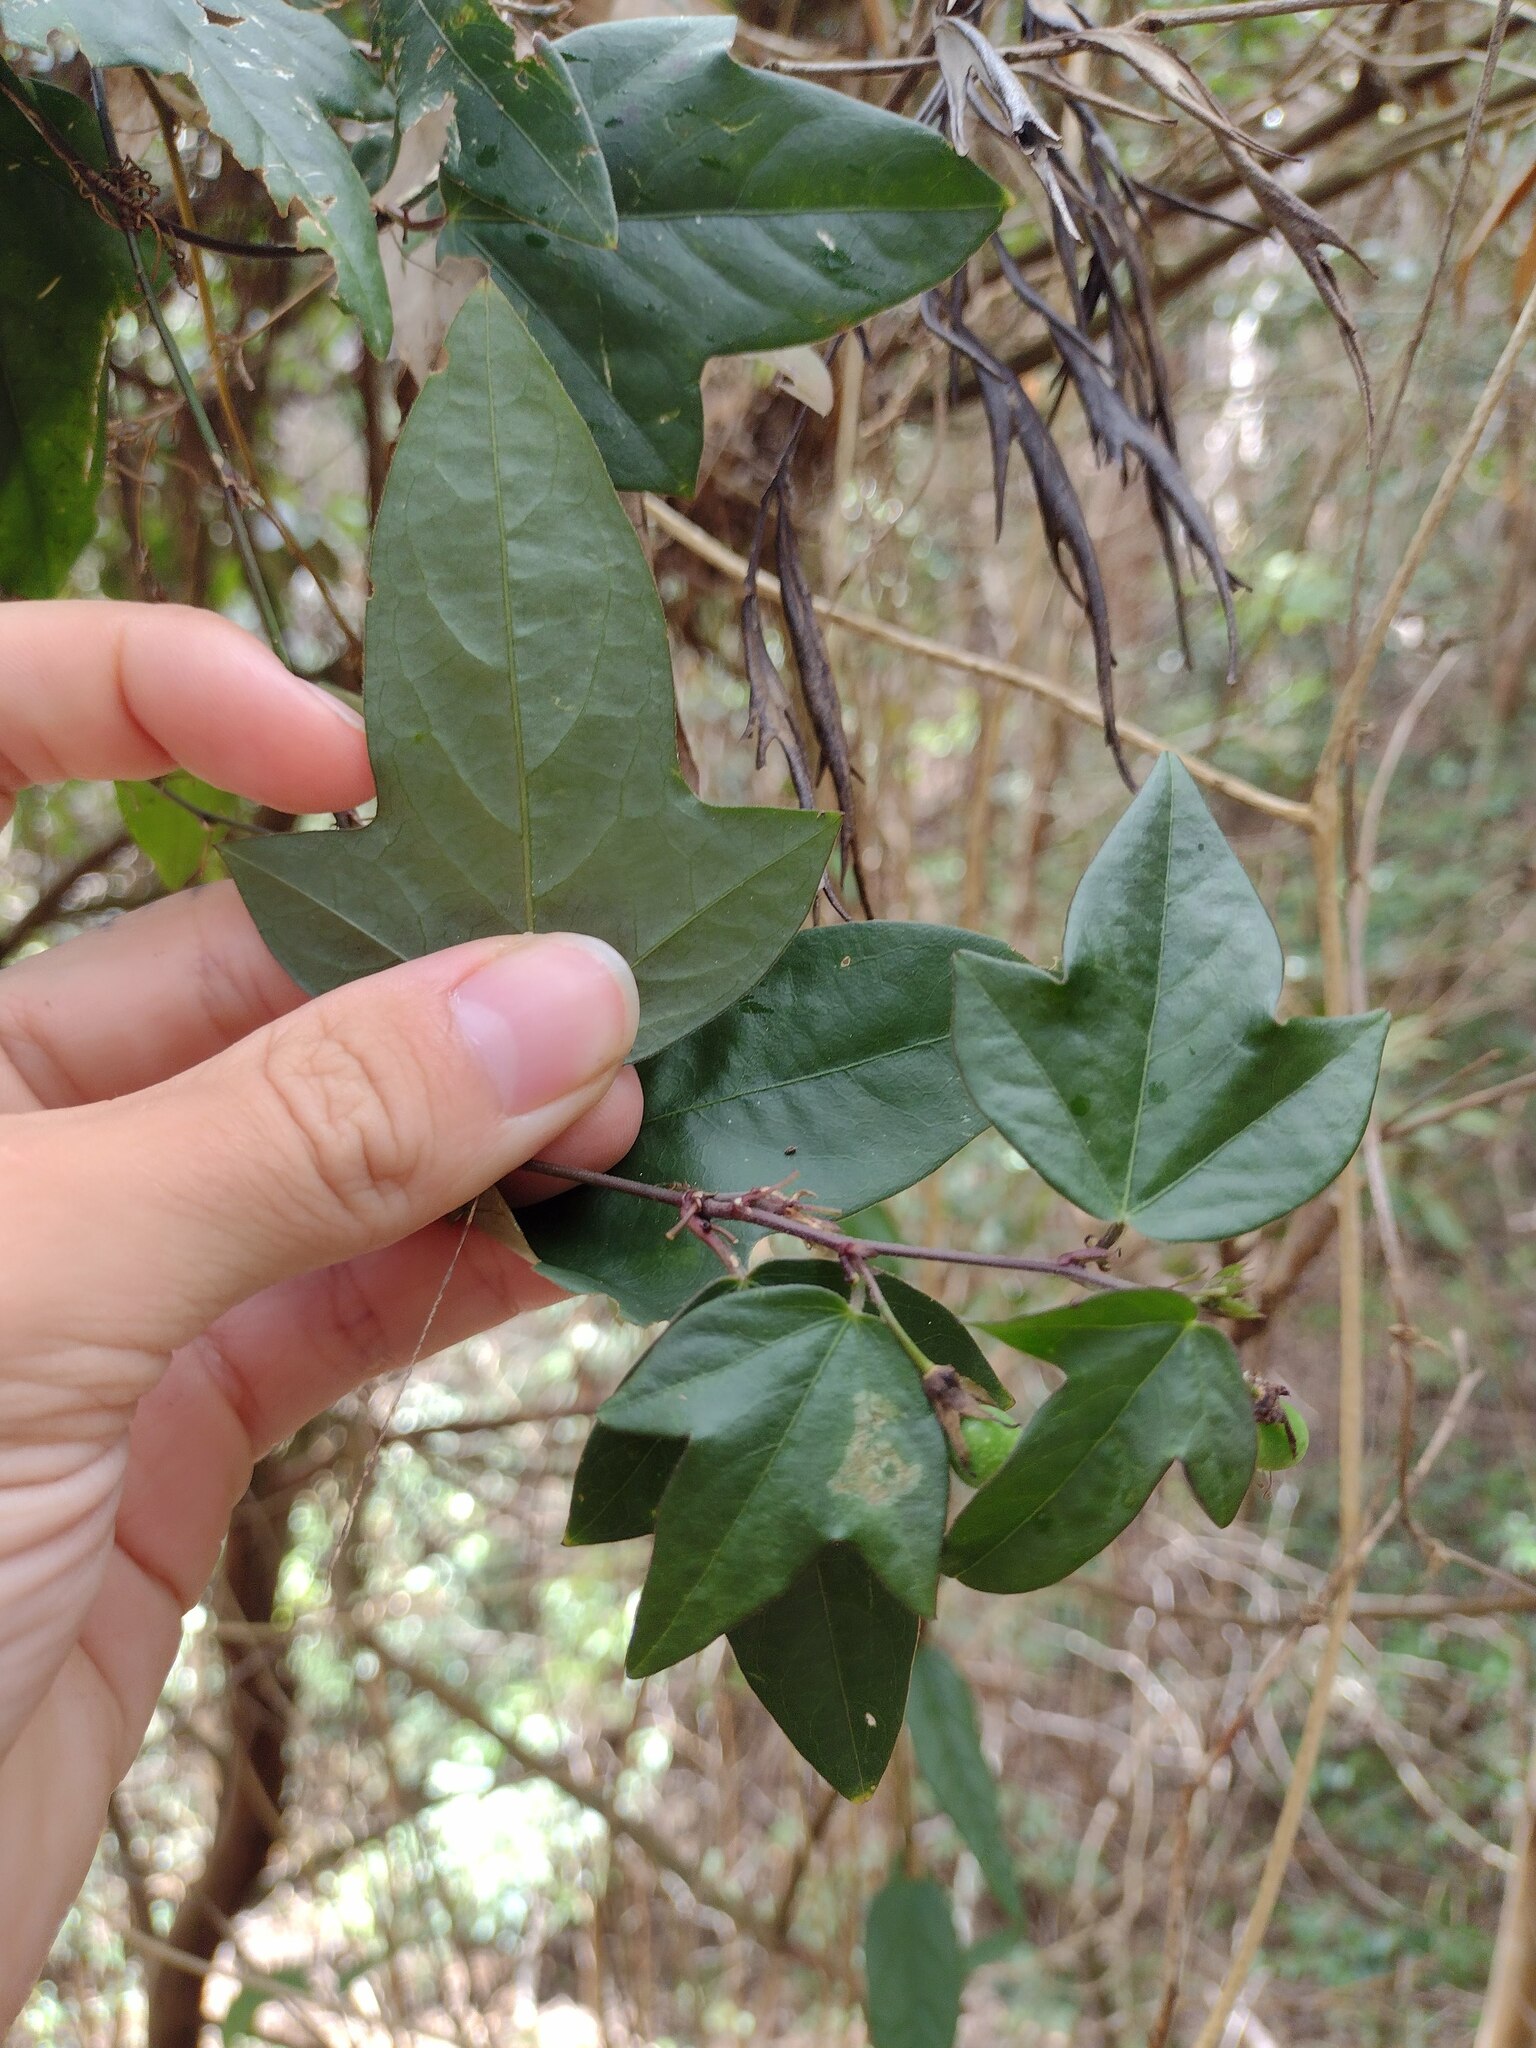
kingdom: Plantae
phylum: Tracheophyta
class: Magnoliopsida
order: Malpighiales
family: Passifloraceae
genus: Passiflora
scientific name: Passiflora suberosa
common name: Wild passionfruit
